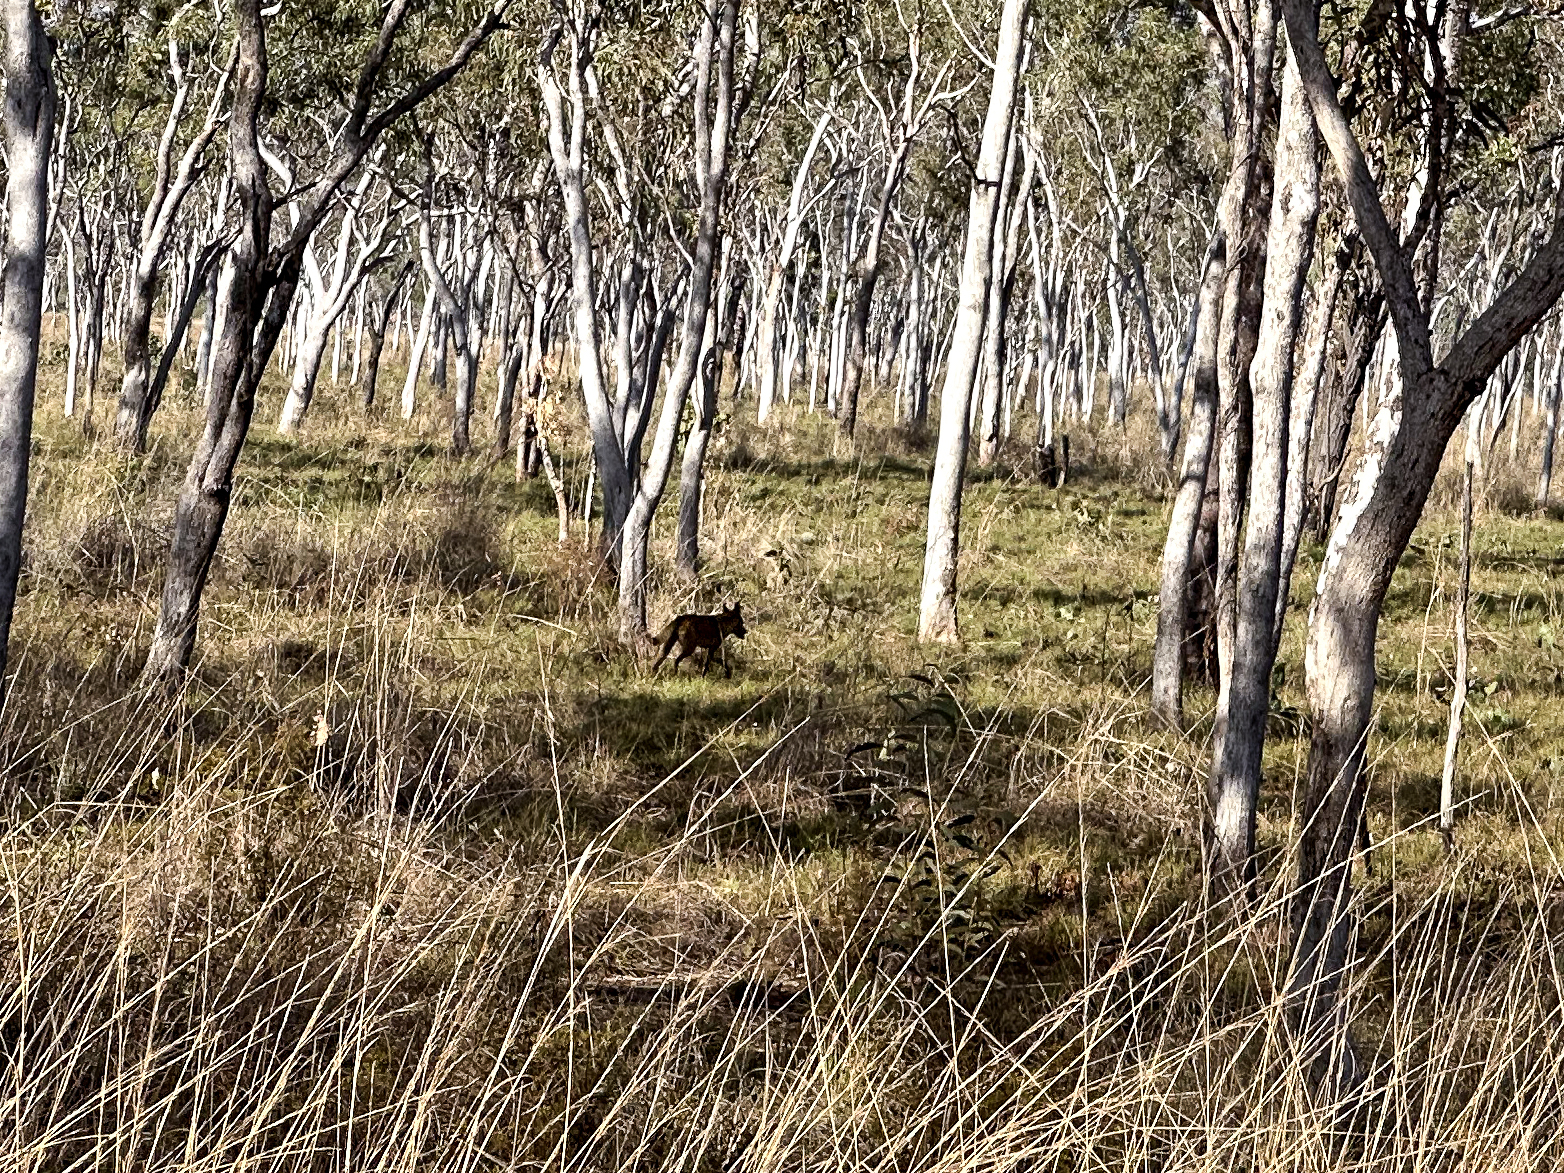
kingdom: Animalia
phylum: Chordata
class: Mammalia
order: Carnivora
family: Canidae
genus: Canis
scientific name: Canis lupus
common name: Gray wolf
